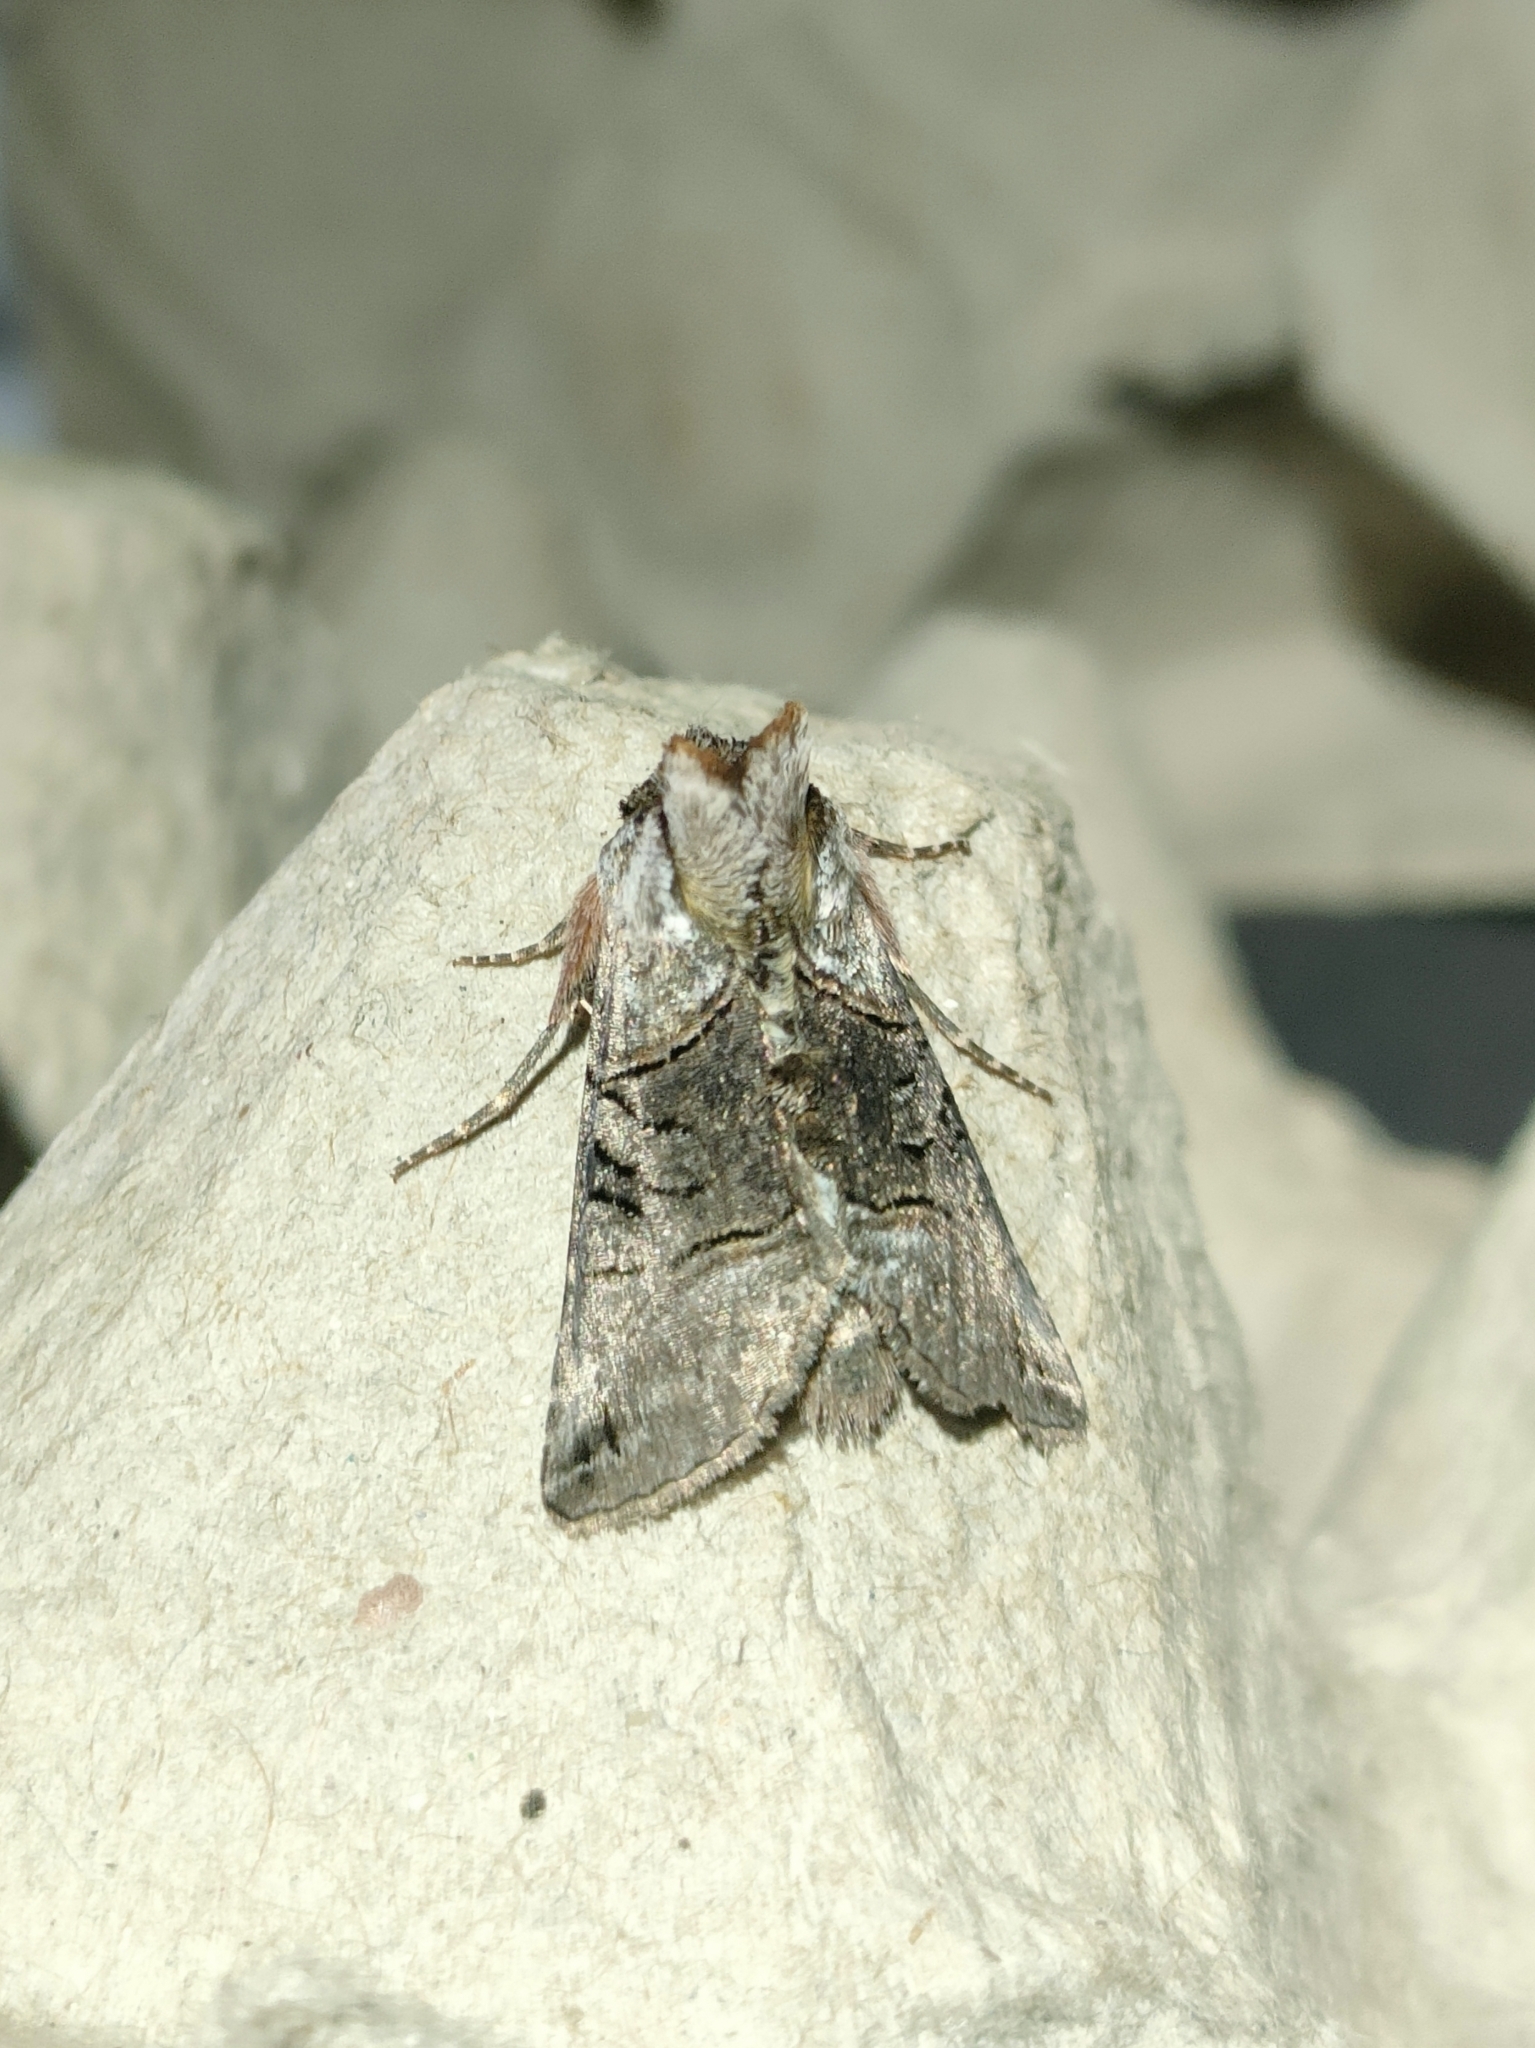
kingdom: Animalia
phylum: Arthropoda
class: Insecta
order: Lepidoptera
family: Noctuidae
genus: Abrostola
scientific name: Abrostola tripartita
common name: Spectacle
